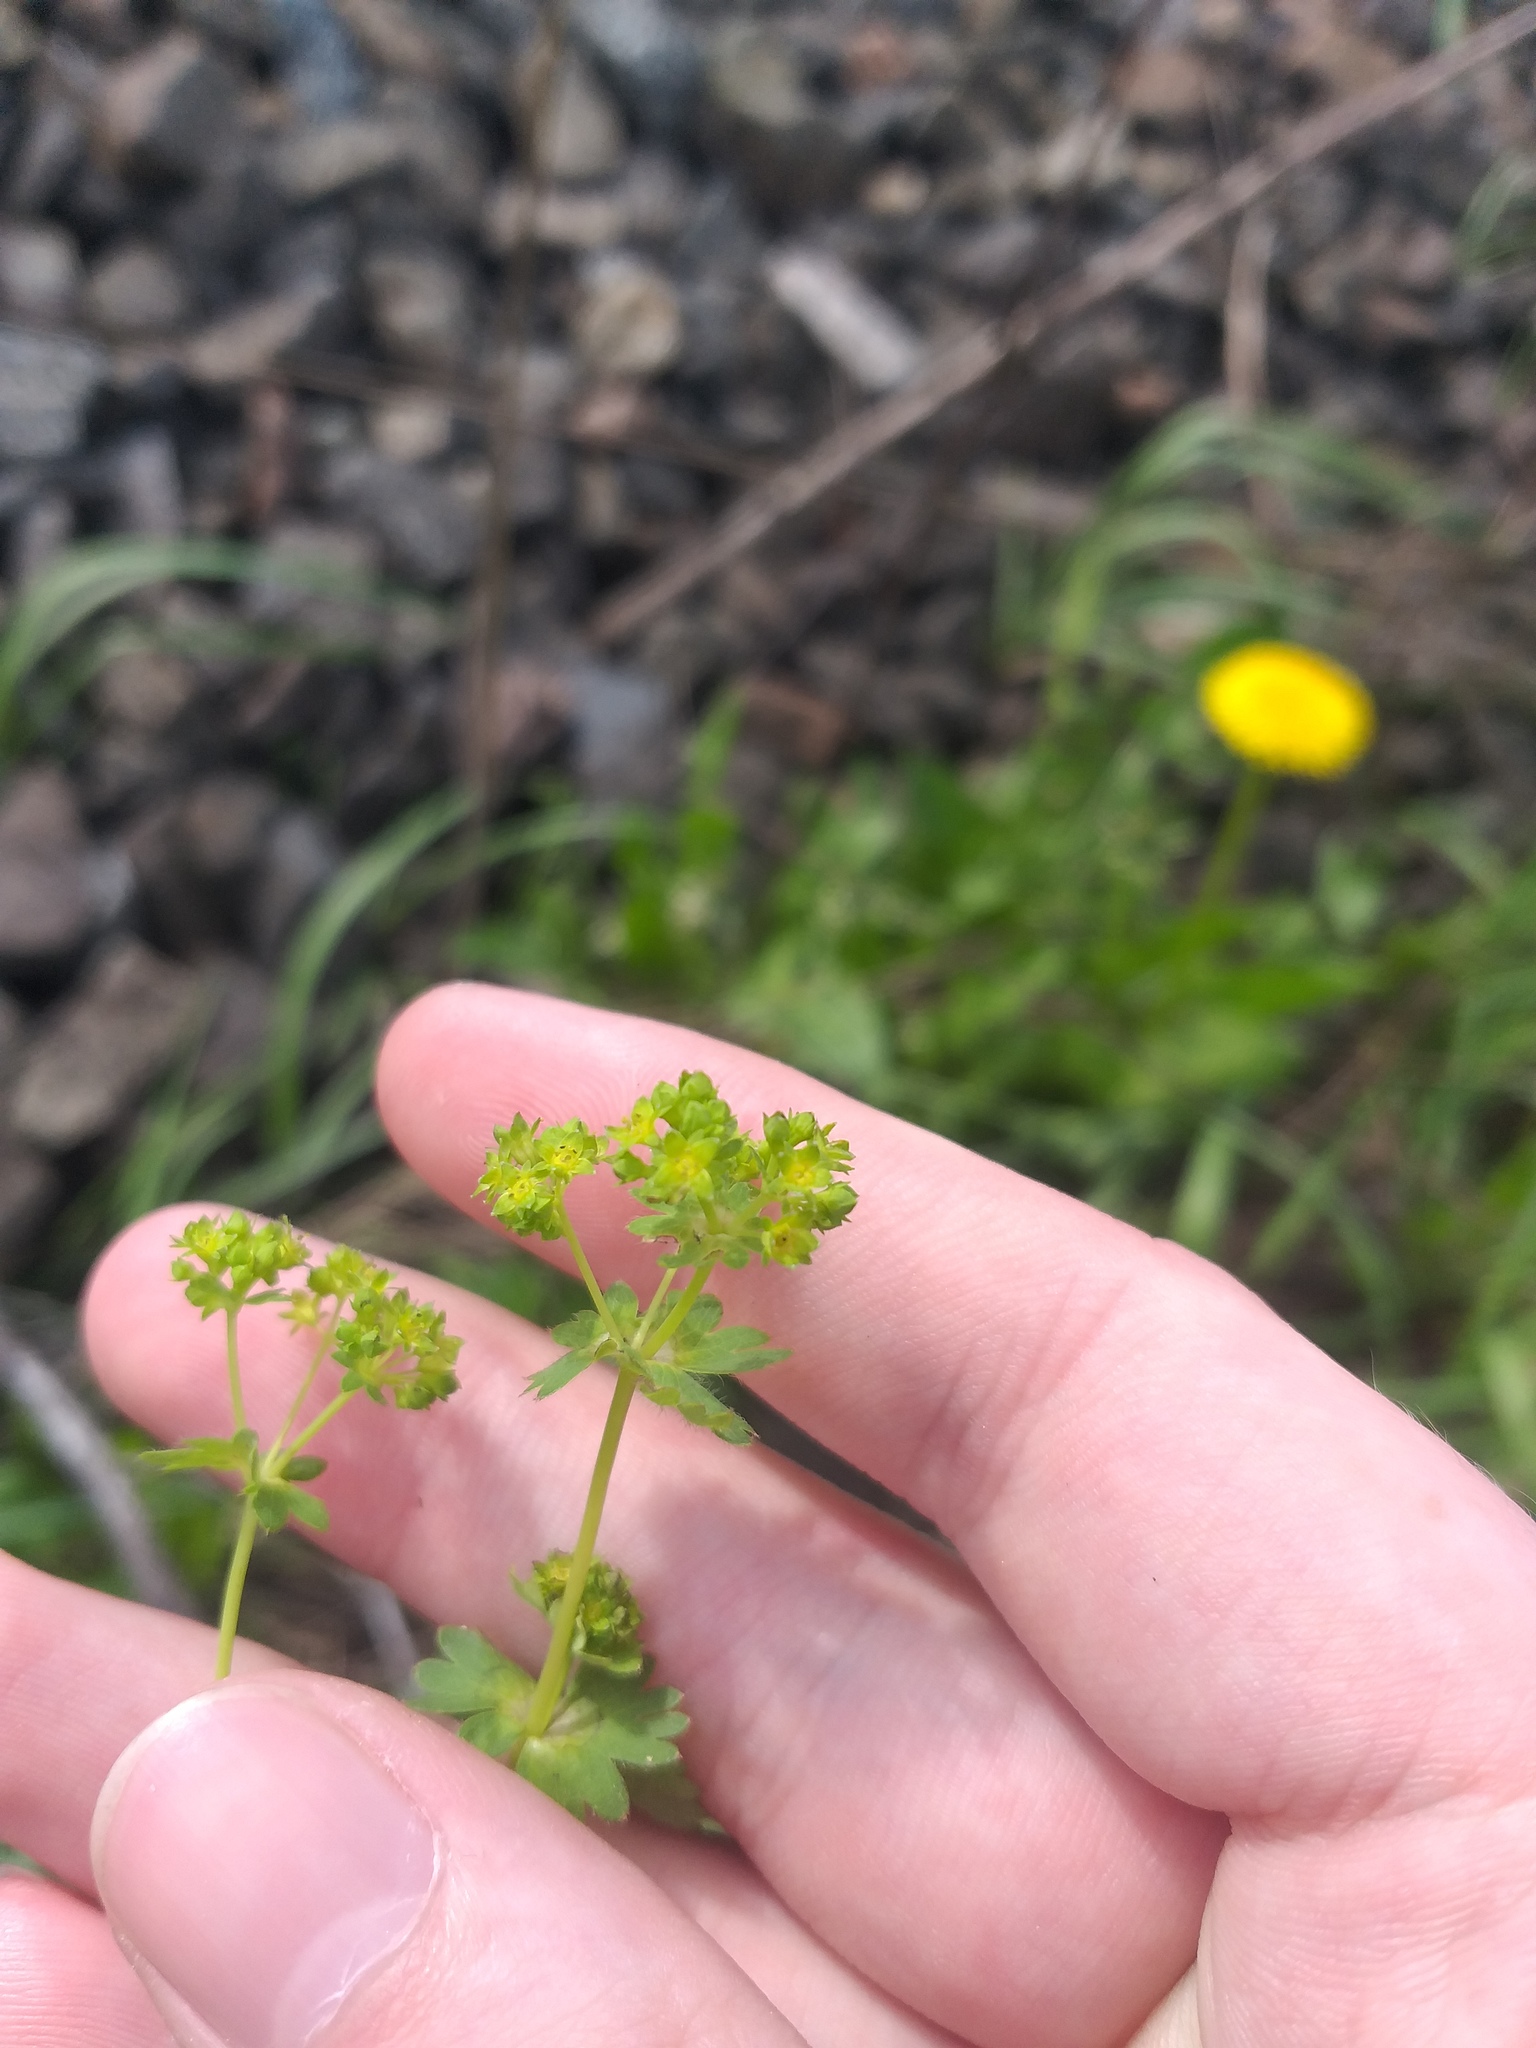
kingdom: Plantae
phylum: Tracheophyta
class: Magnoliopsida
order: Rosales
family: Rosaceae
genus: Alchemilla
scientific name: Alchemilla filicaulis
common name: Hairy lady's-mantle
